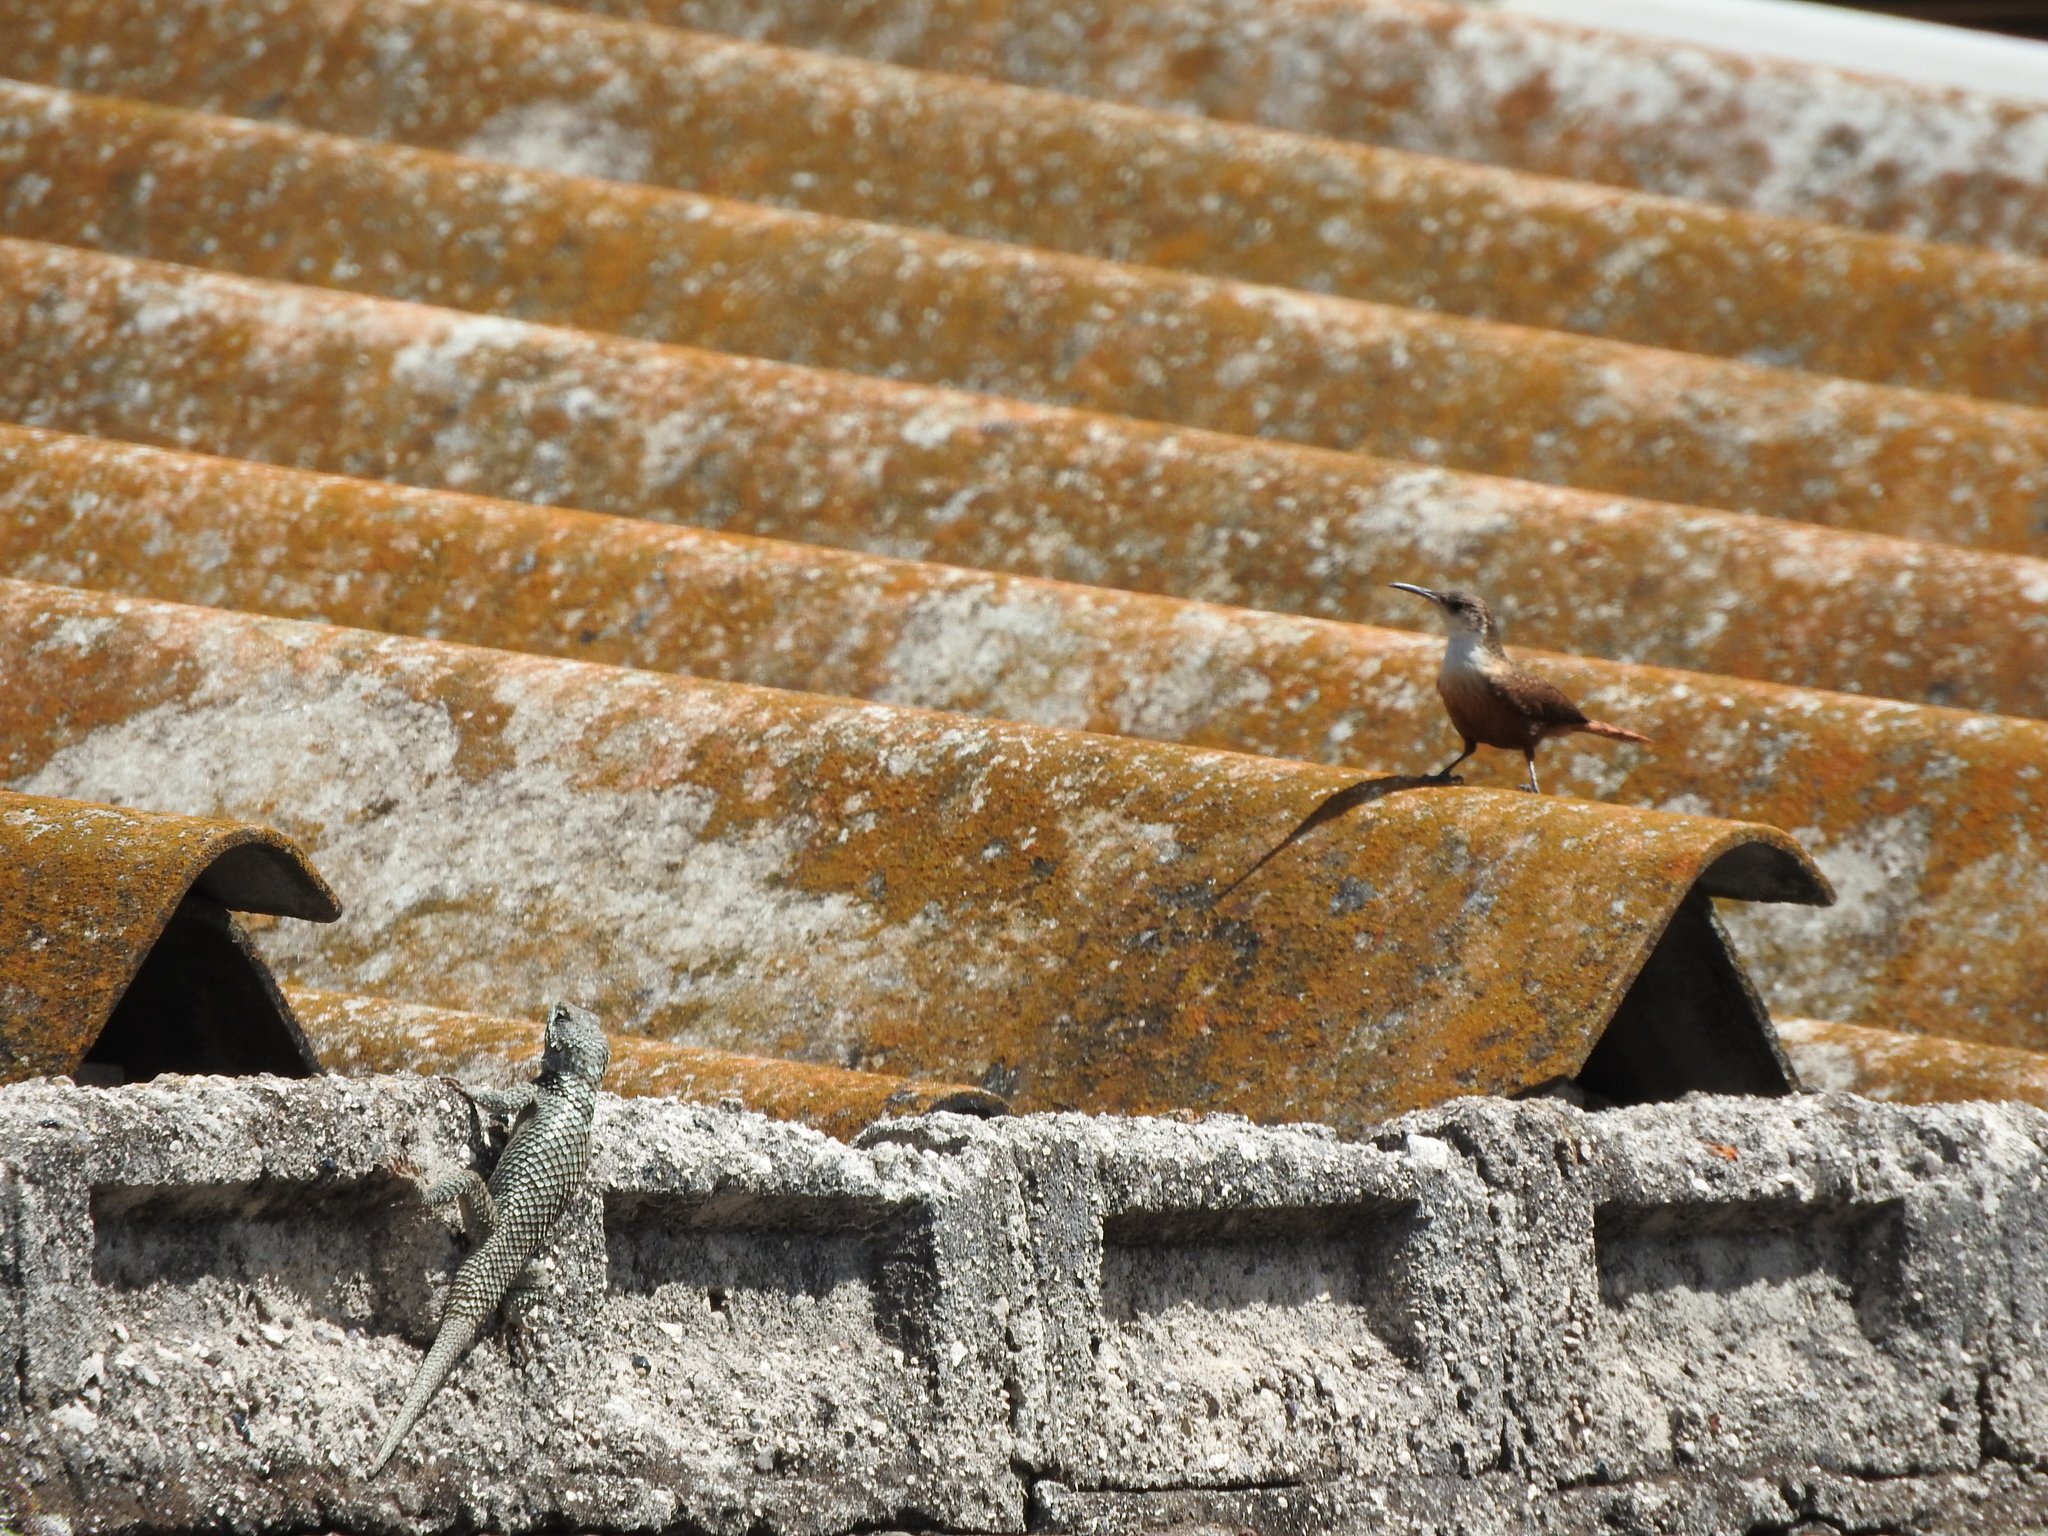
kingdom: Animalia
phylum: Chordata
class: Aves
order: Passeriformes
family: Troglodytidae
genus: Catherpes
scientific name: Catherpes mexicanus
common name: Canyon wren
